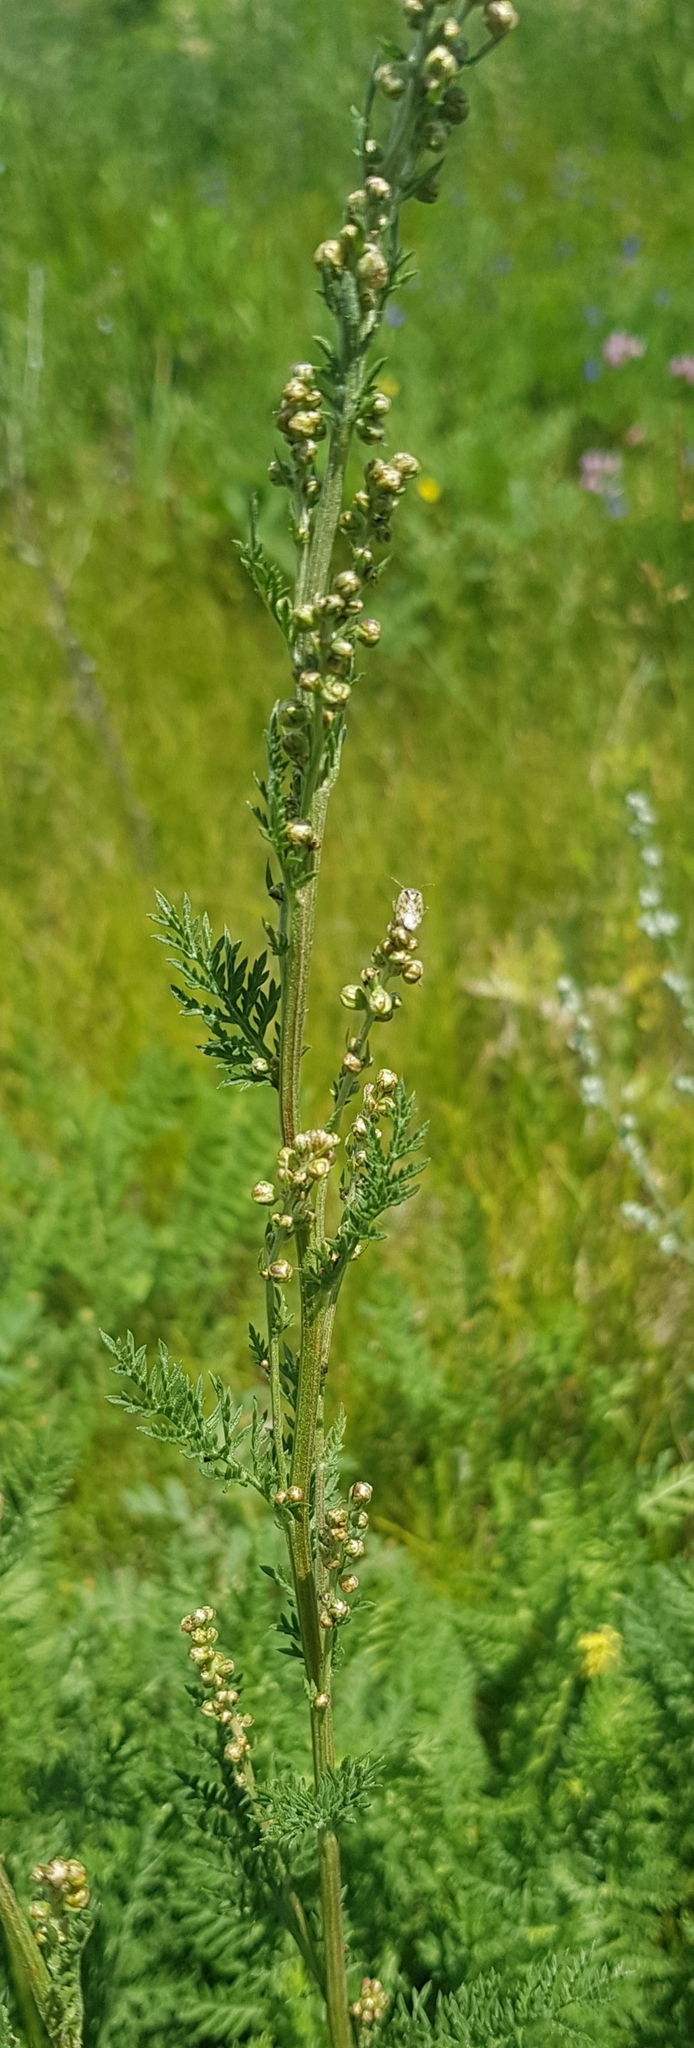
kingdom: Plantae
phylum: Tracheophyta
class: Magnoliopsida
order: Asterales
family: Asteraceae
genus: Artemisia
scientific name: Artemisia tanacetifolia
